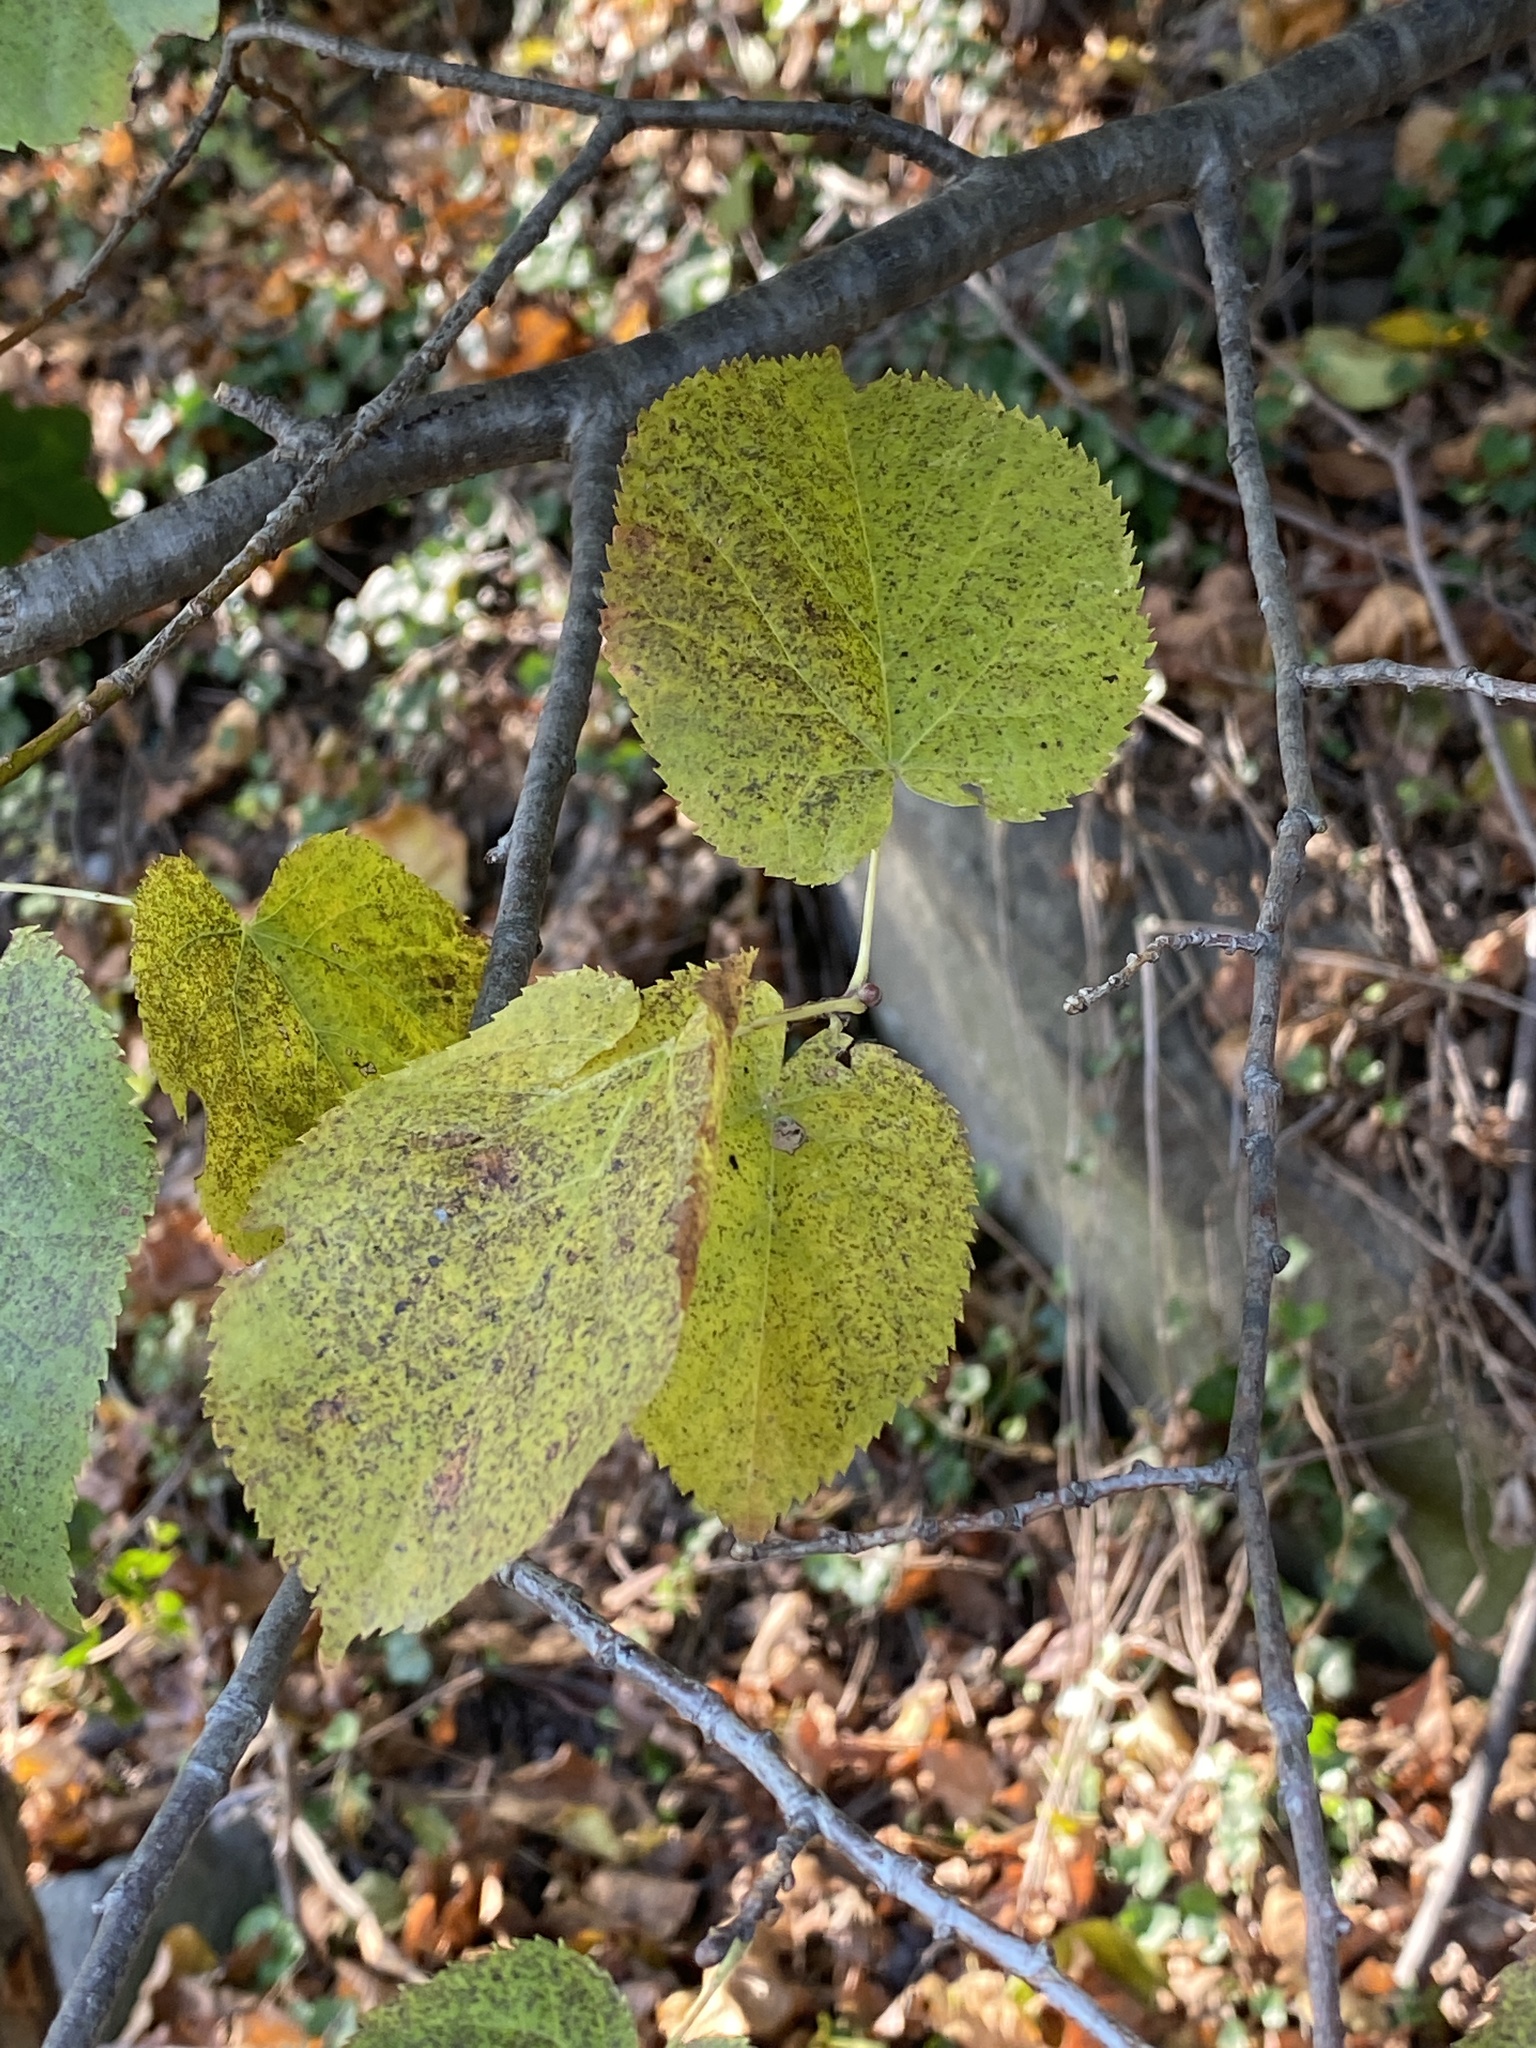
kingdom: Plantae
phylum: Tracheophyta
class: Magnoliopsida
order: Malvales
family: Malvaceae
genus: Tilia
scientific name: Tilia americana
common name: Basswood
